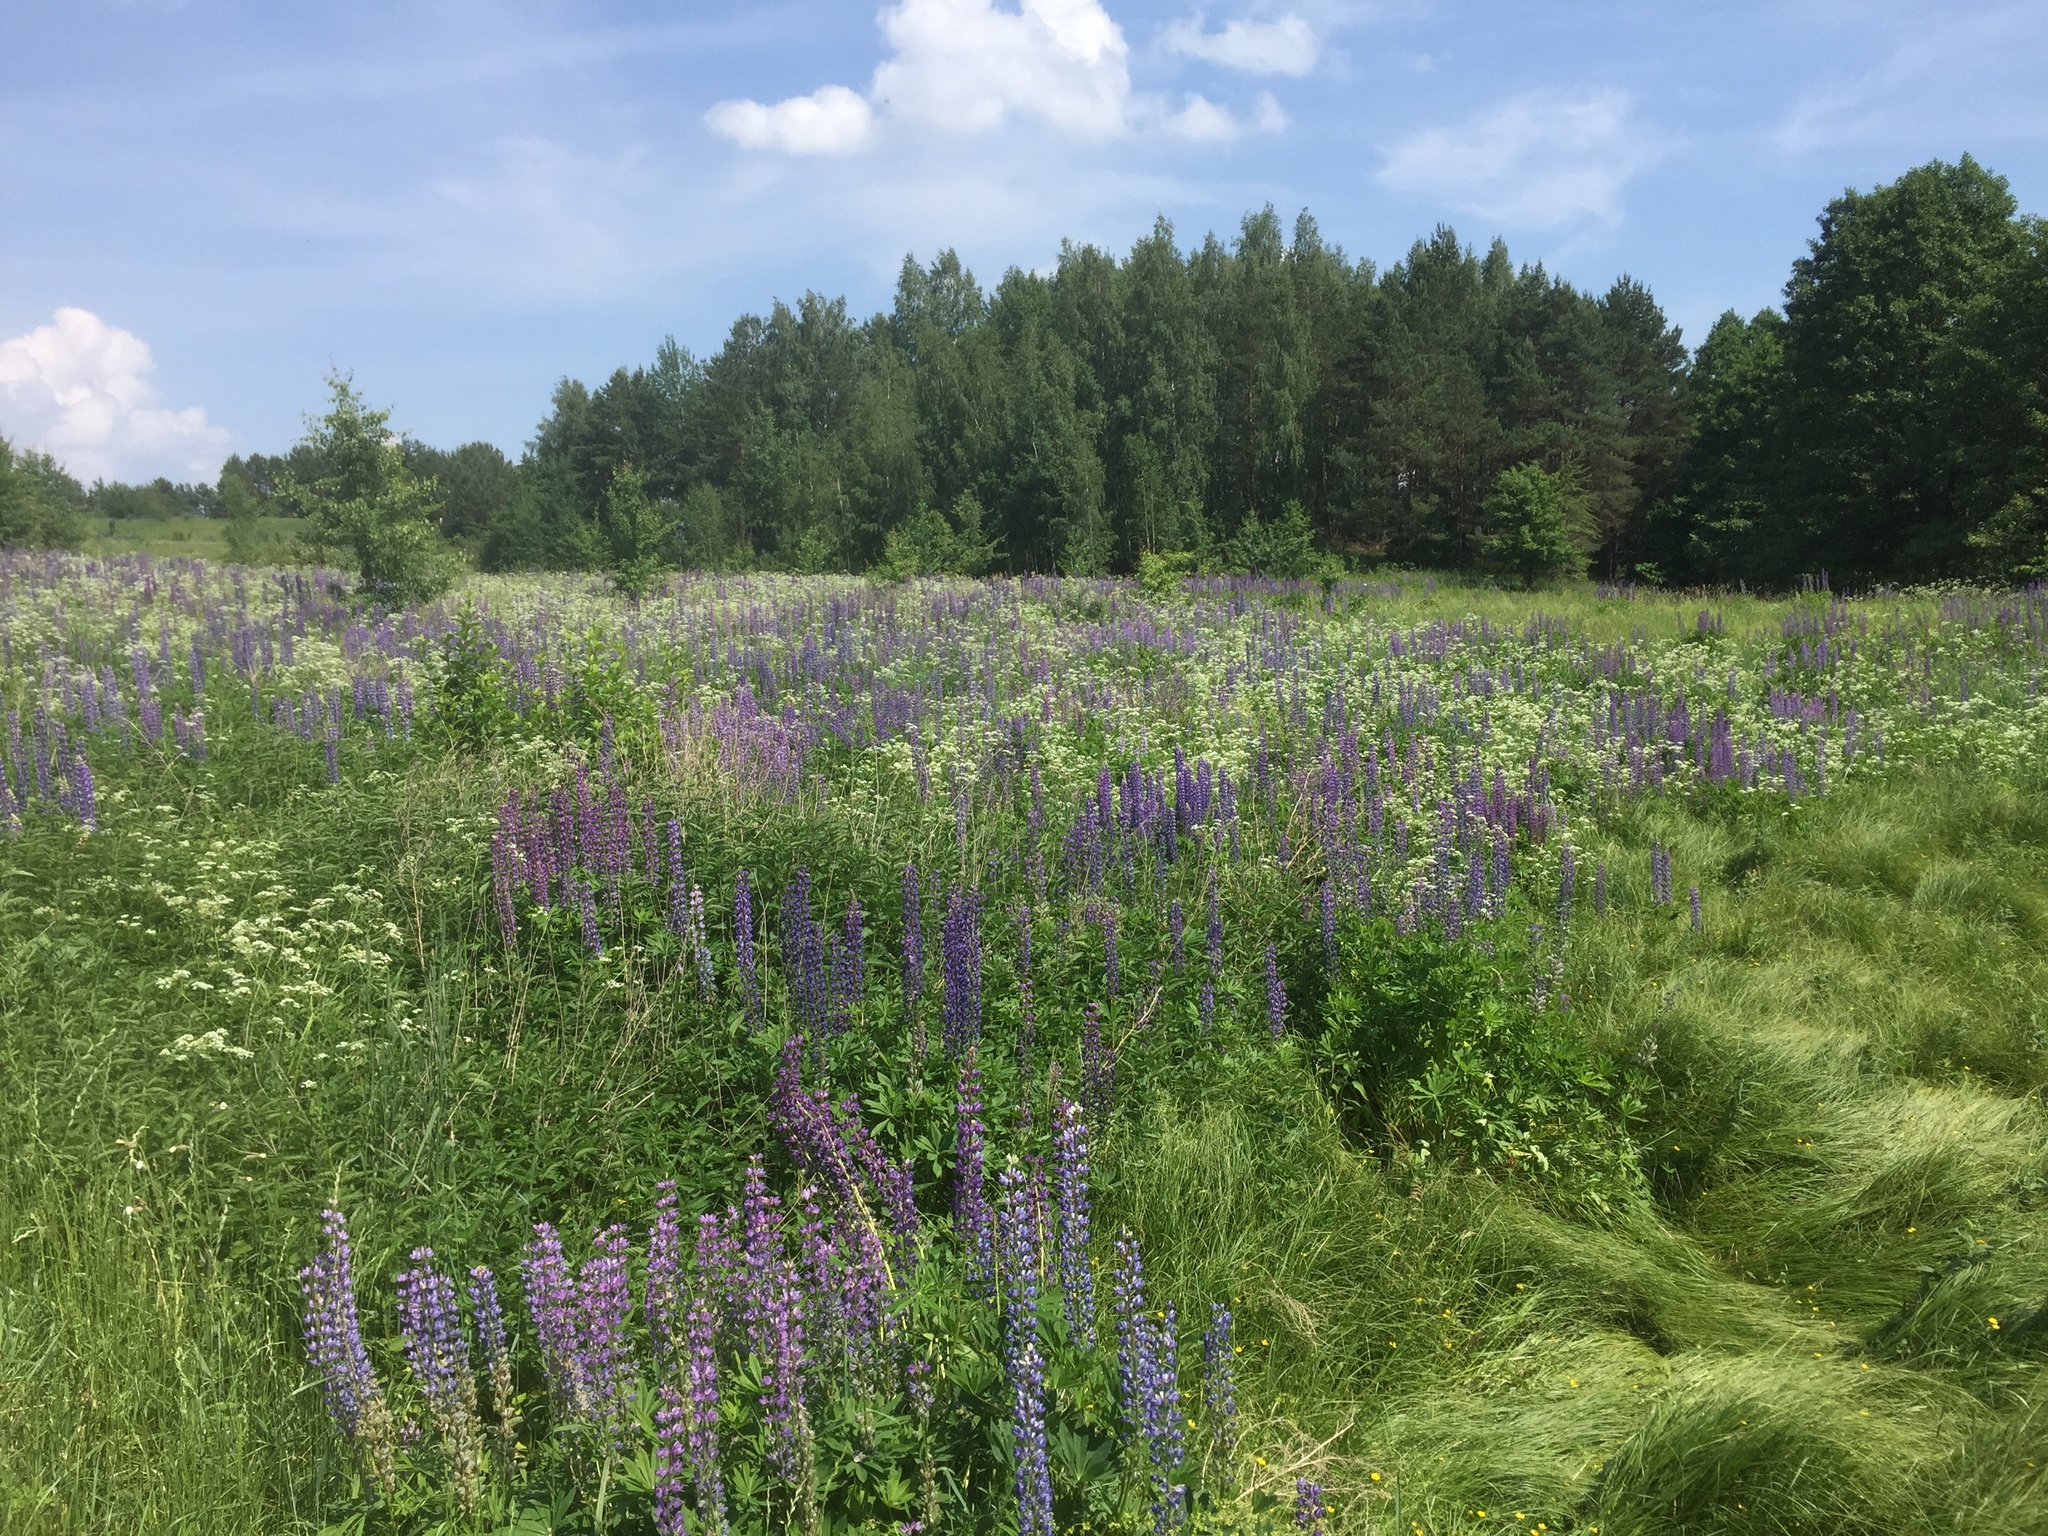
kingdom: Plantae
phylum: Tracheophyta
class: Magnoliopsida
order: Fabales
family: Fabaceae
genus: Lupinus
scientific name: Lupinus polyphyllus
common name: Garden lupin
